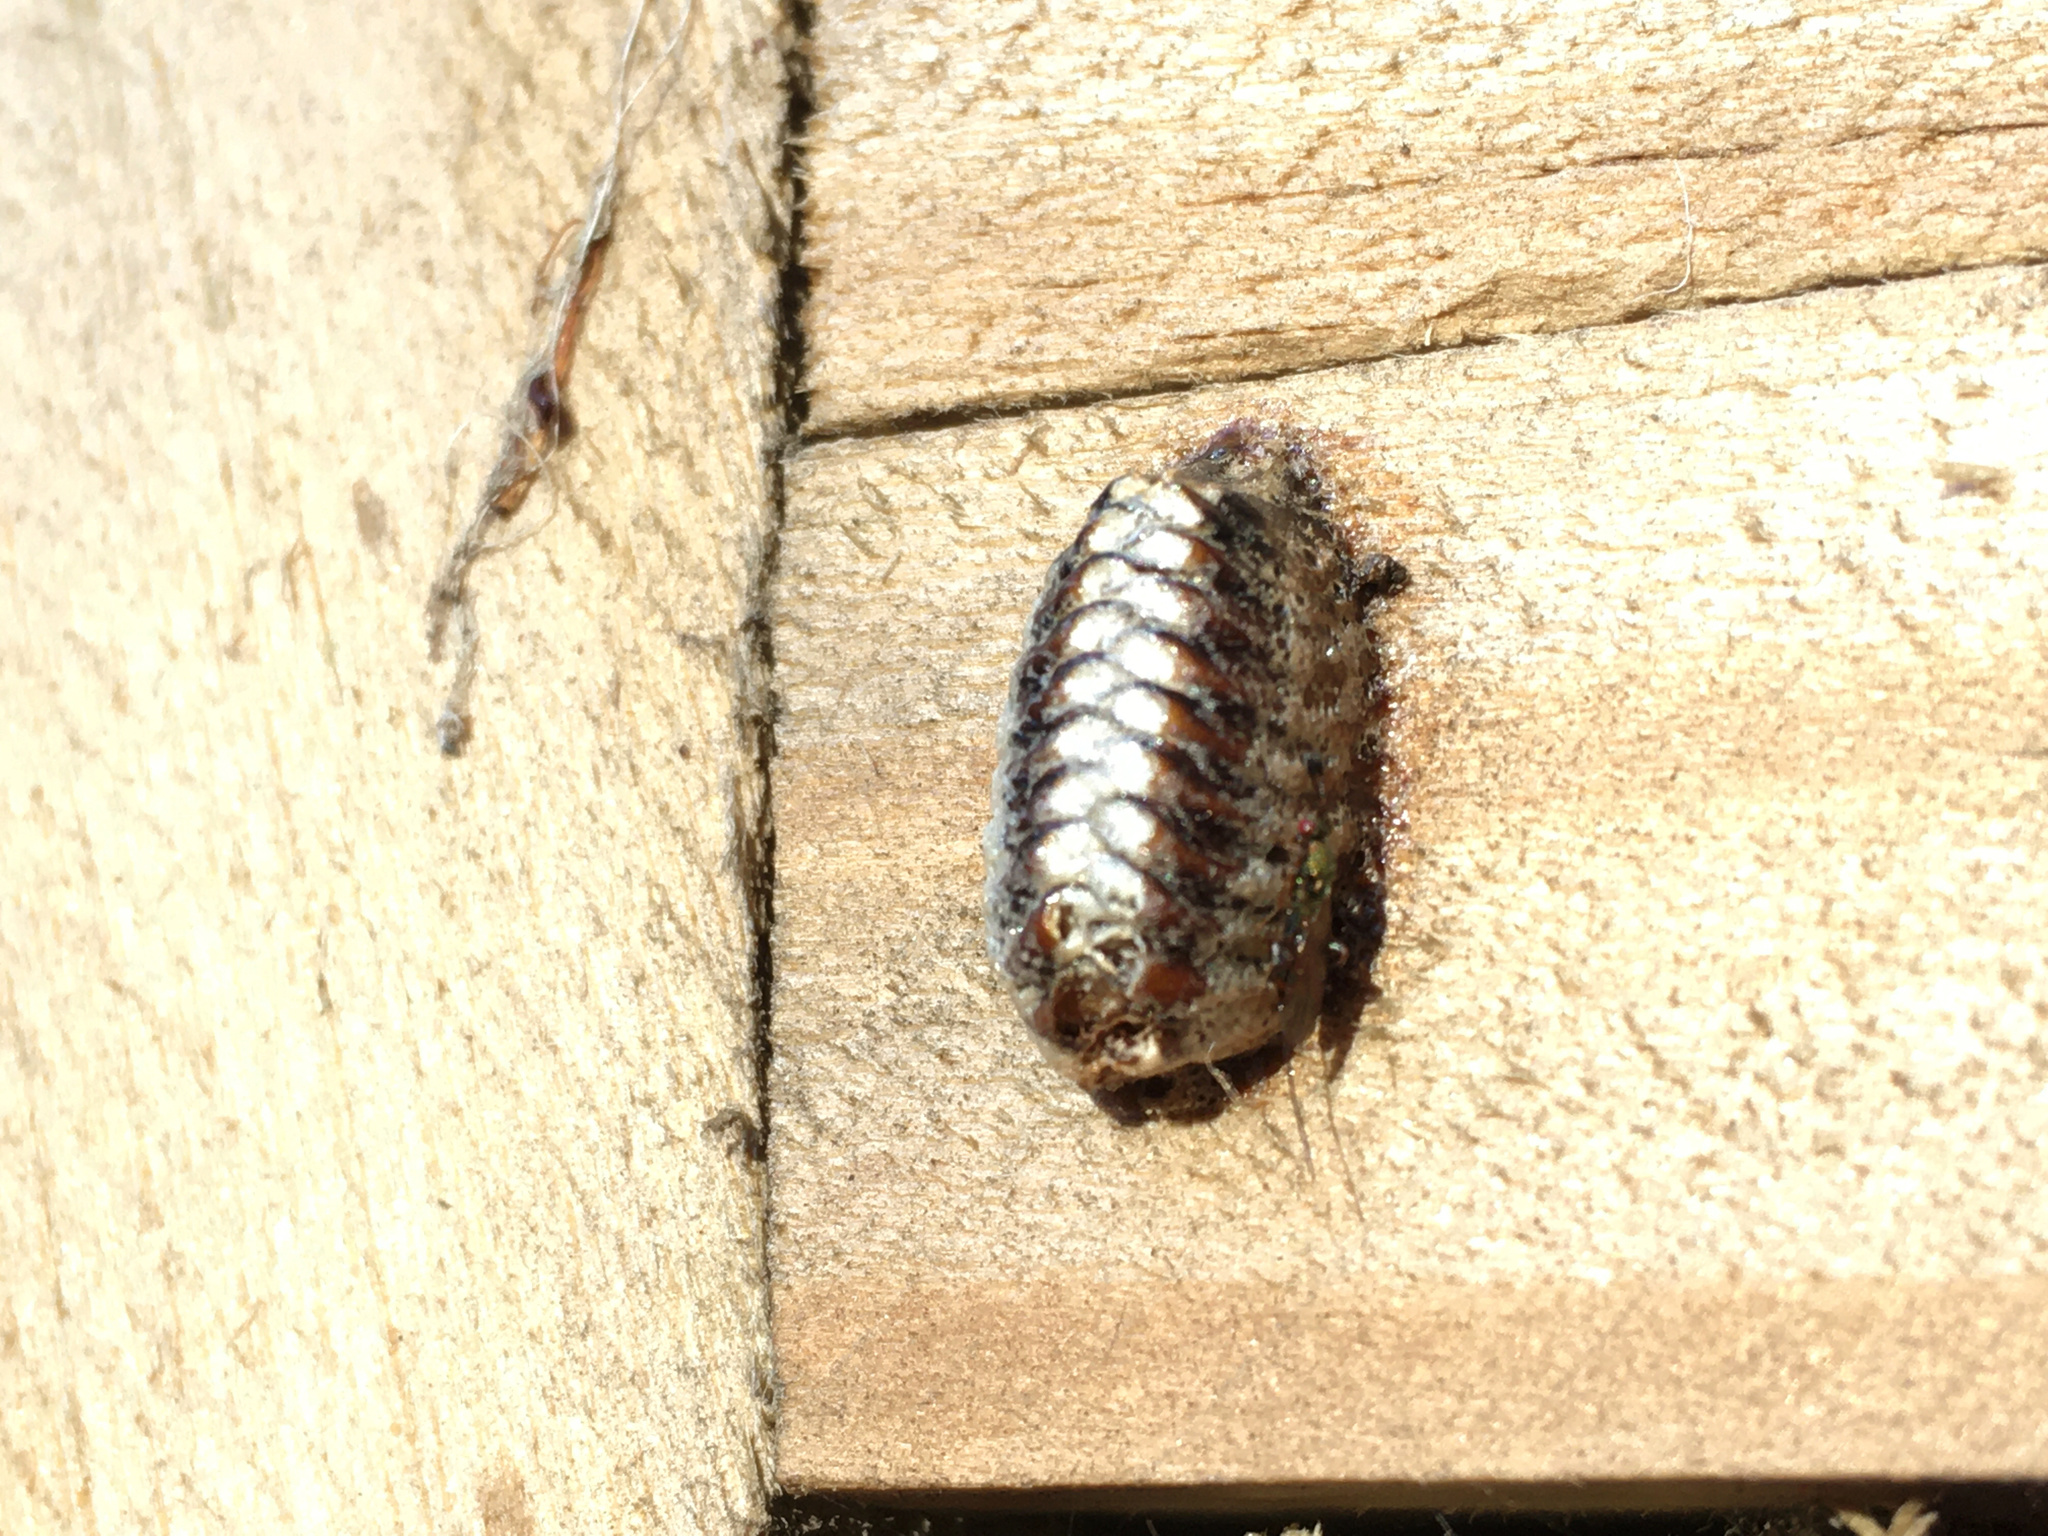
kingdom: Animalia
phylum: Arthropoda
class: Insecta
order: Mantodea
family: Mantidae
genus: Orthodera
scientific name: Orthodera novaezealandiae
